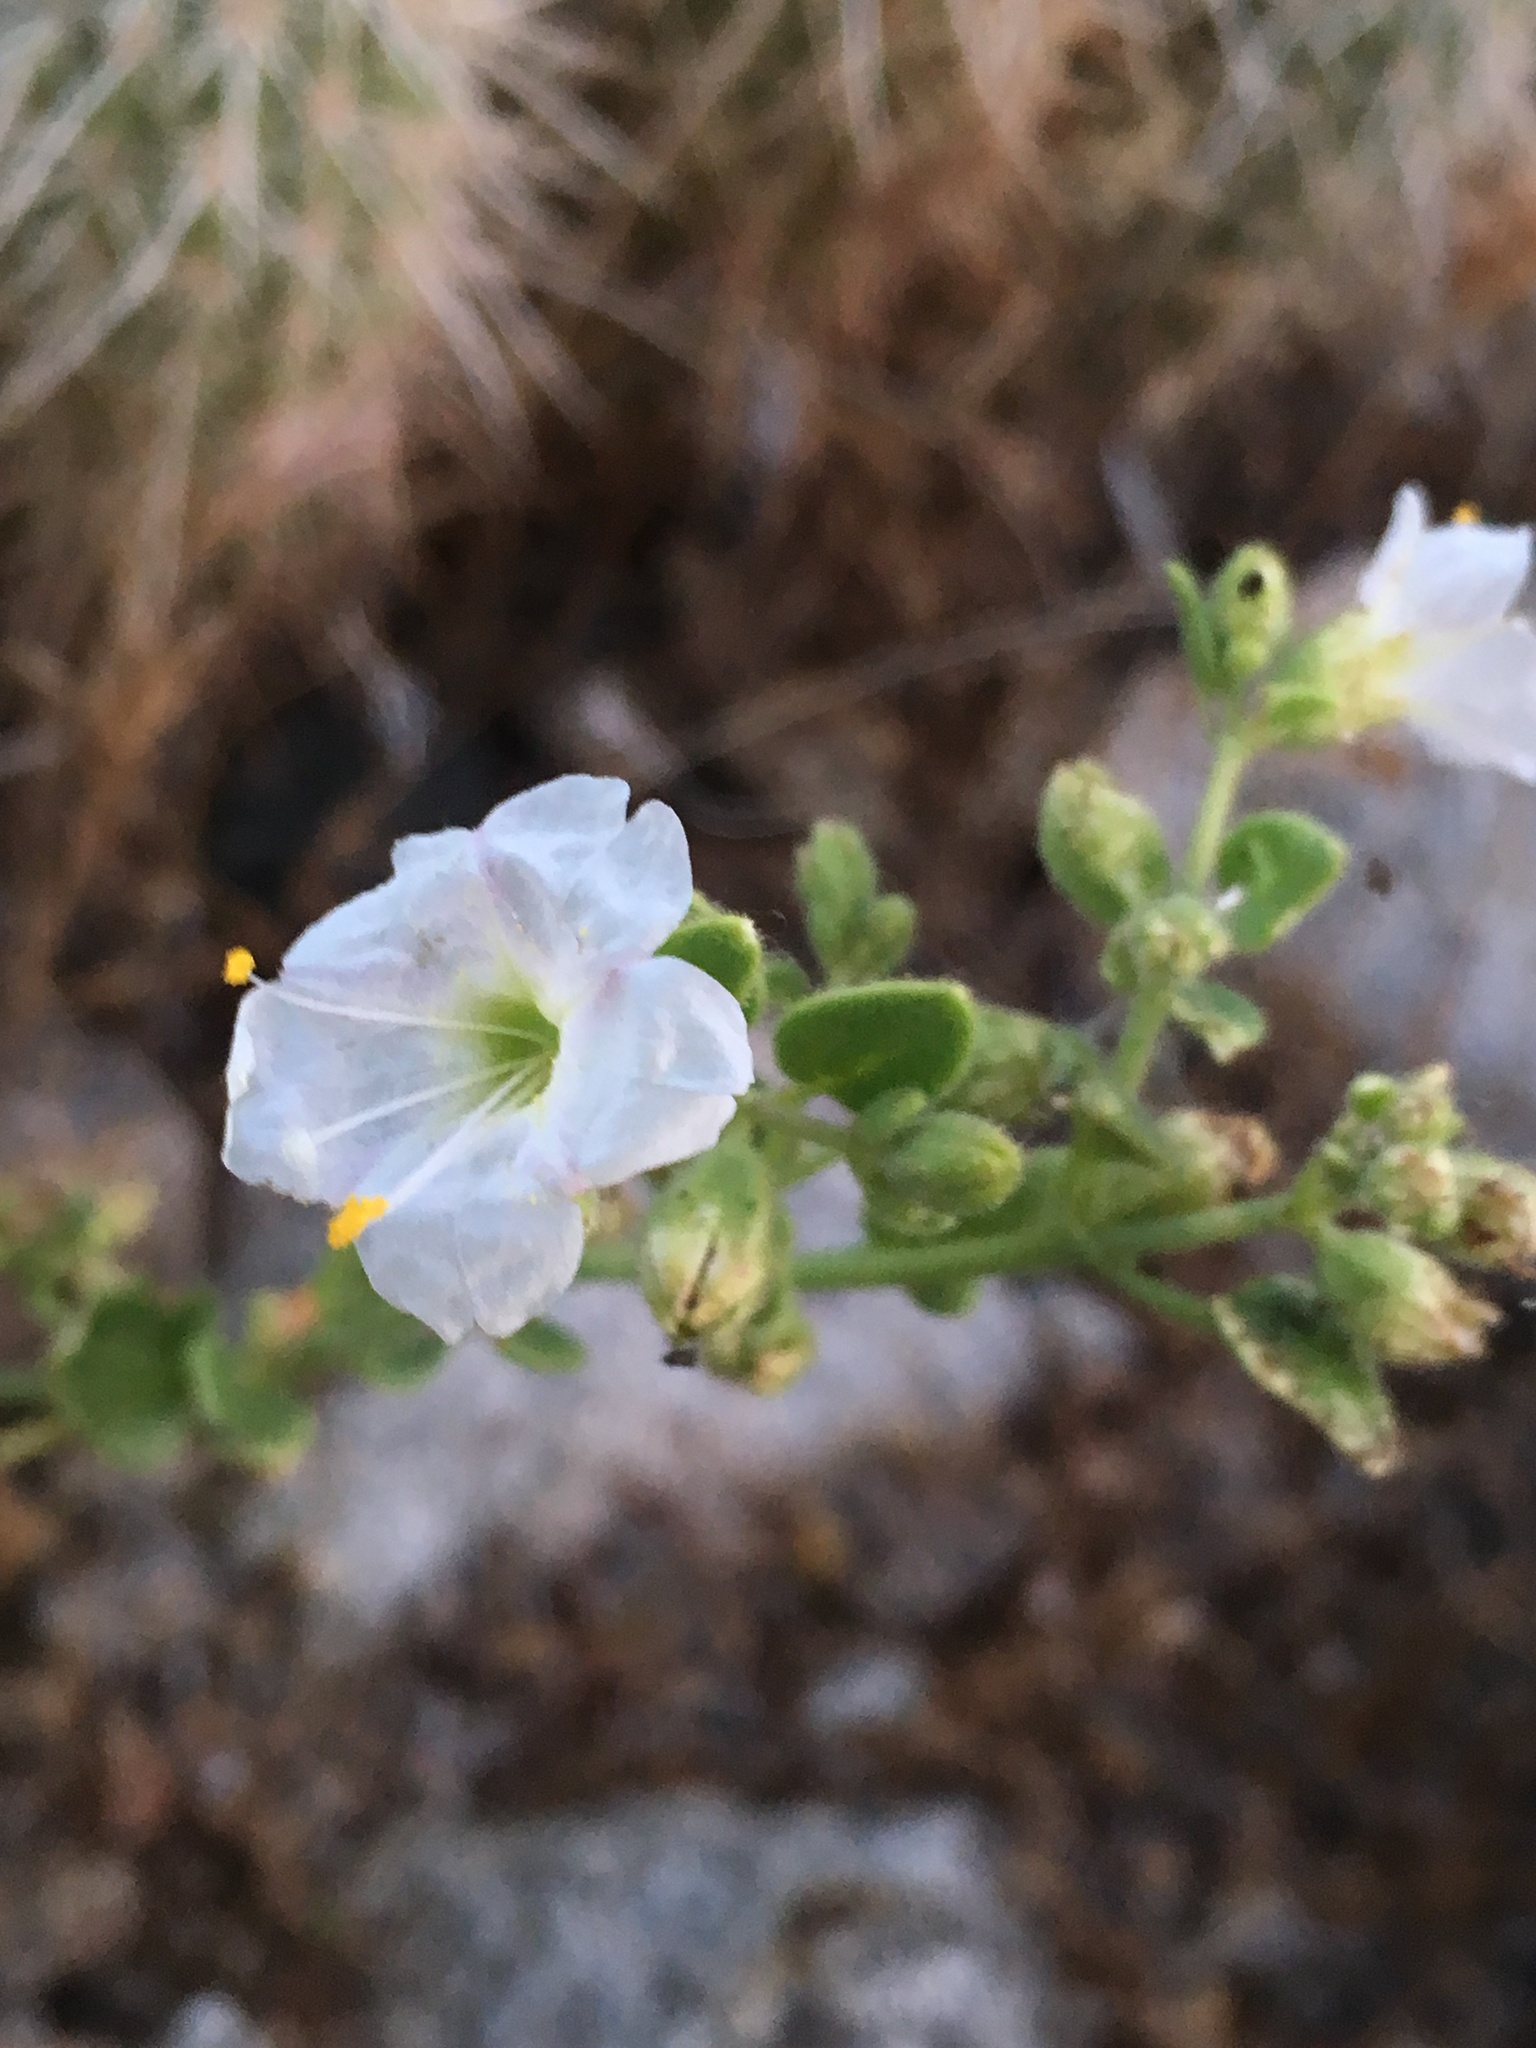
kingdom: Plantae
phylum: Tracheophyta
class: Magnoliopsida
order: Caryophyllales
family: Nyctaginaceae
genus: Mirabilis
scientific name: Mirabilis laevis
